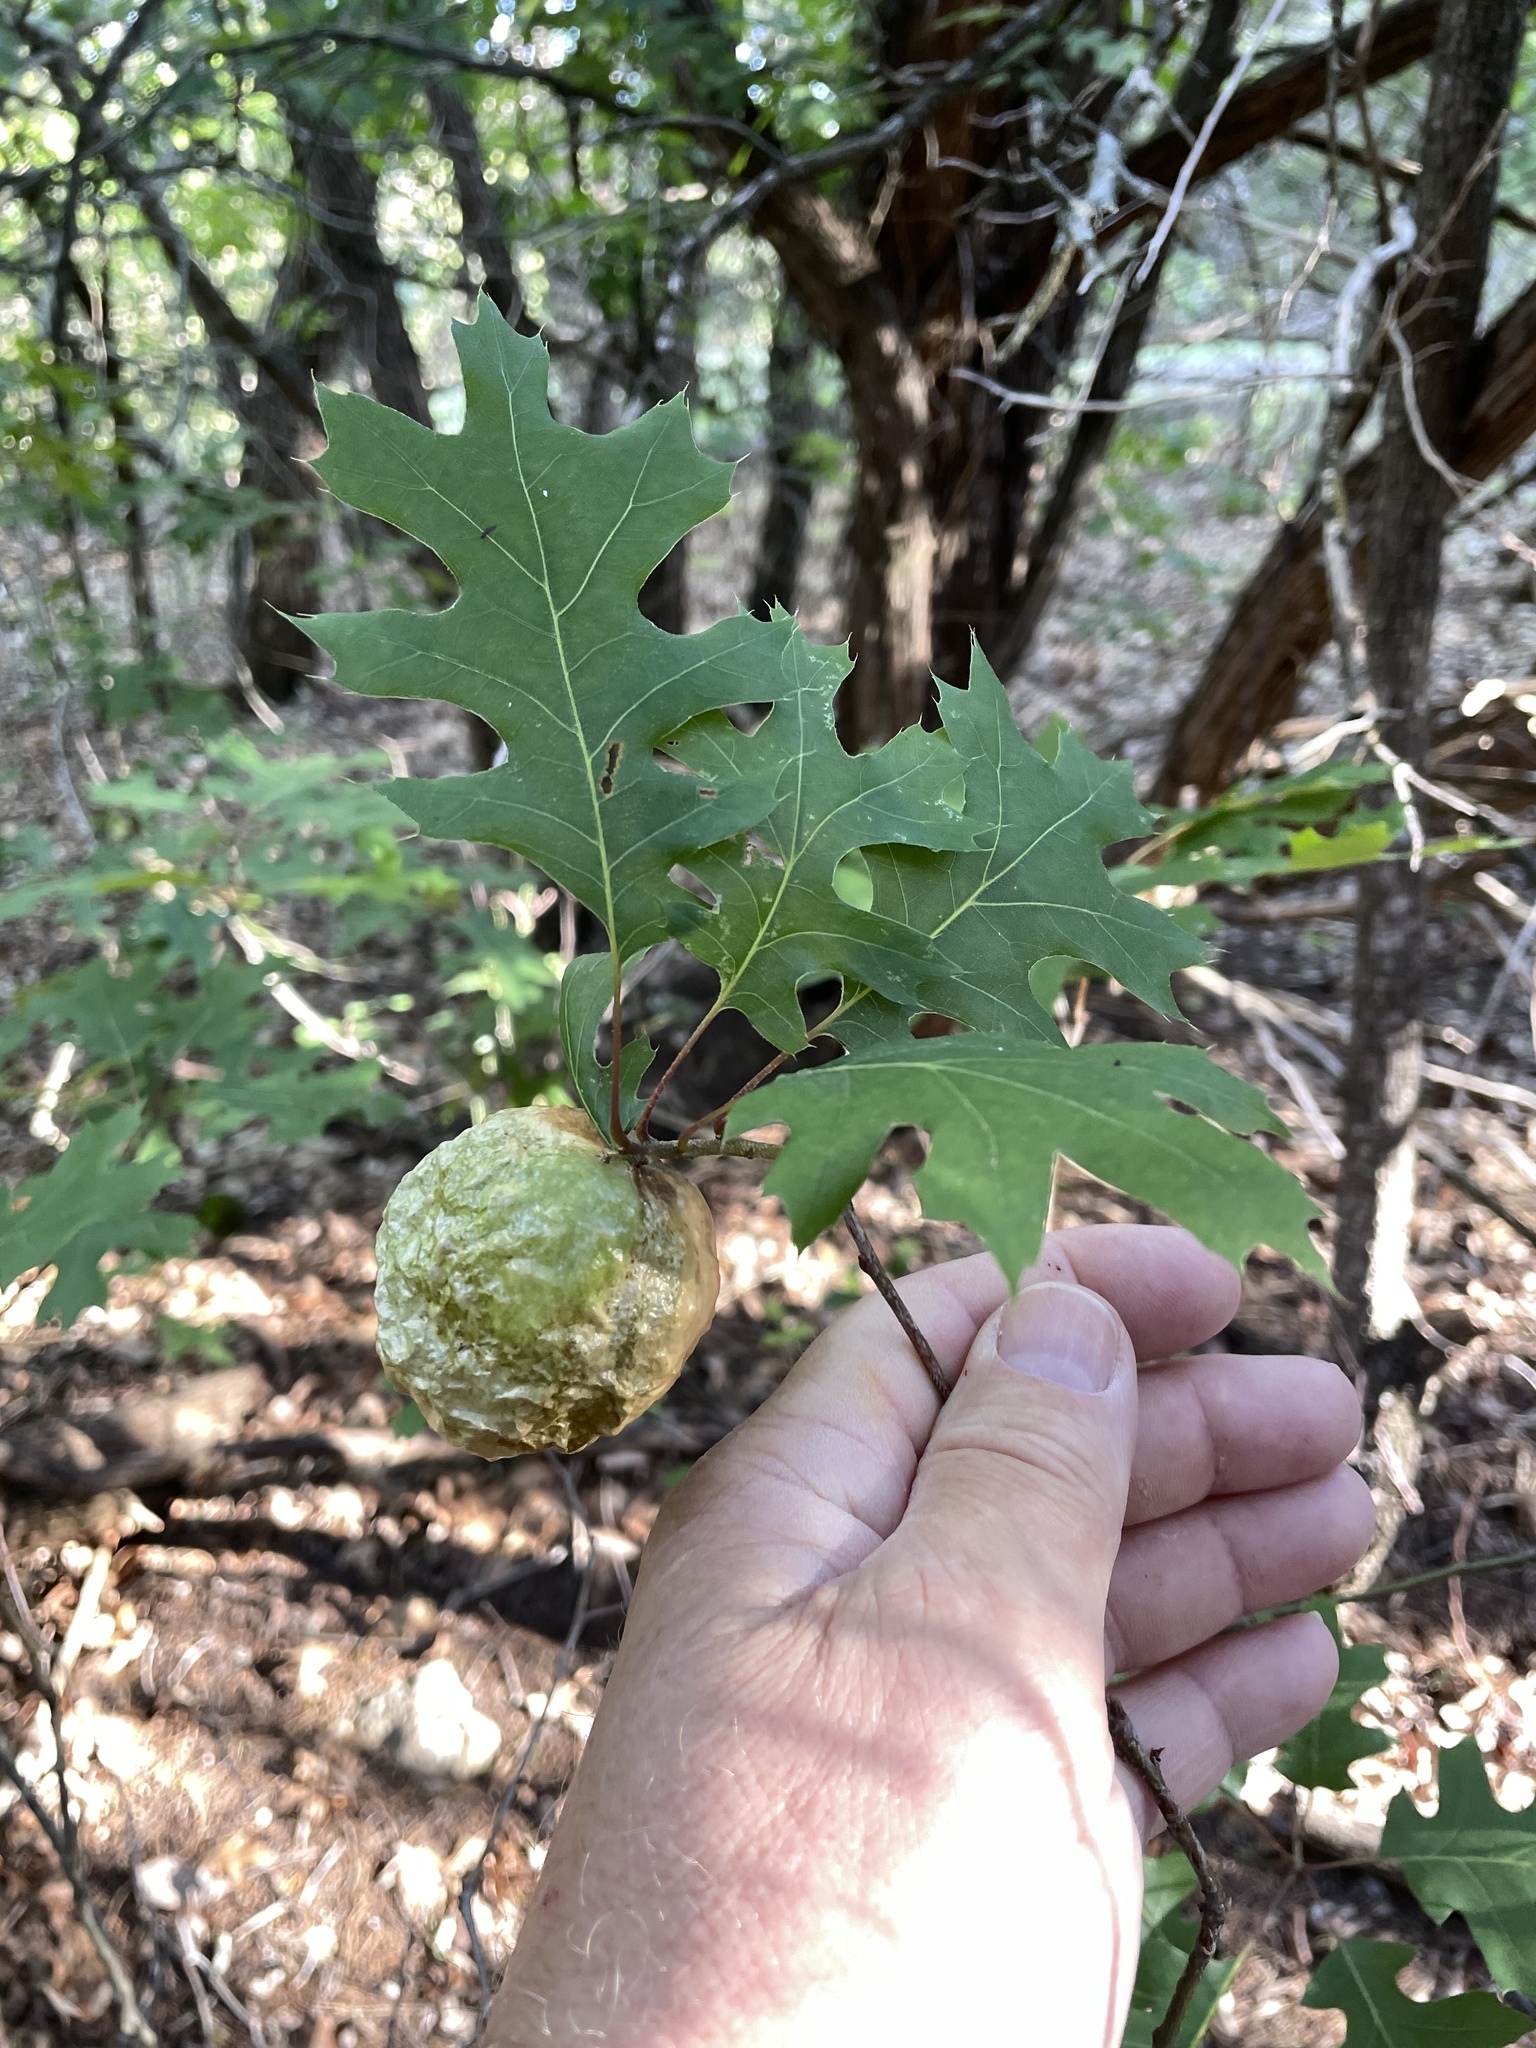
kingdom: Animalia
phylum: Arthropoda
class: Insecta
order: Hymenoptera
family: Cynipidae
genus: Amphibolips
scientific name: Amphibolips
